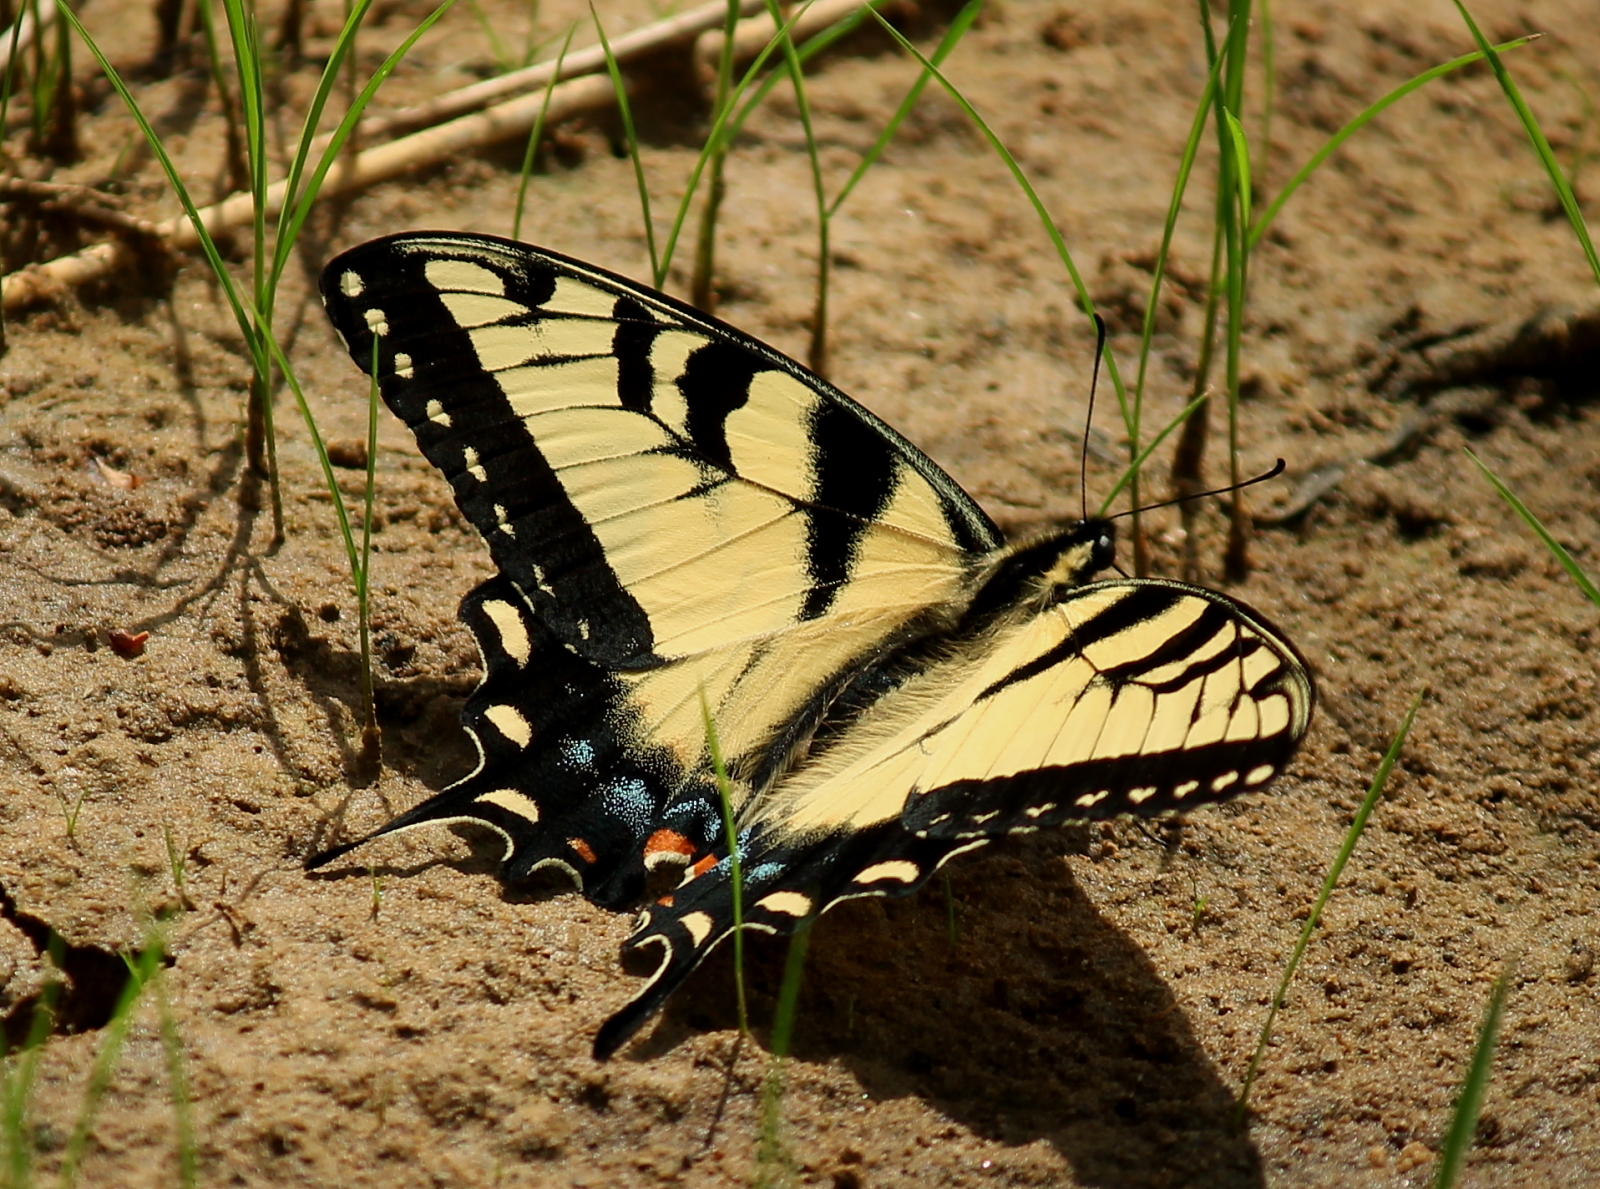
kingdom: Animalia
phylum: Arthropoda
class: Insecta
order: Lepidoptera
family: Papilionidae
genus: Papilio
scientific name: Papilio glaucus
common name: Tiger swallowtail
